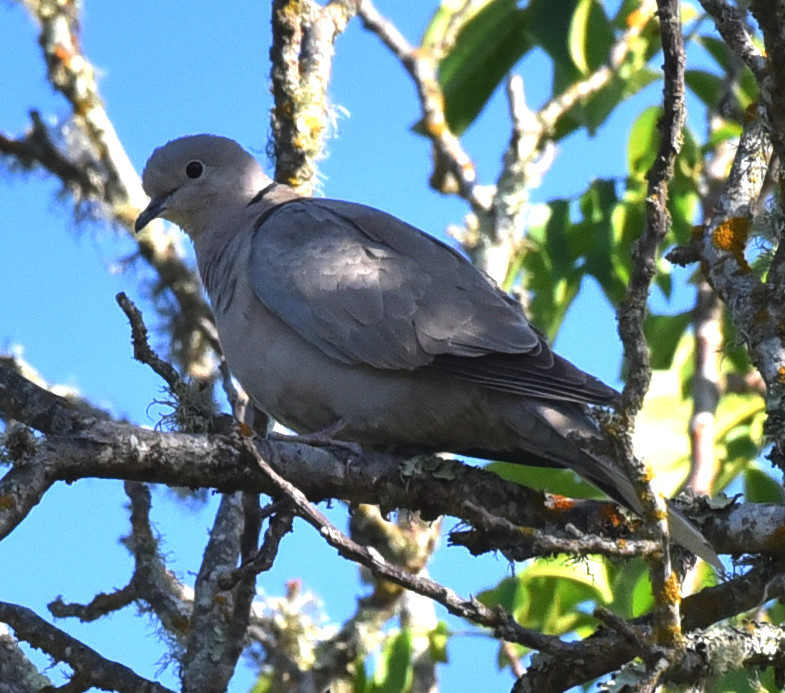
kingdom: Animalia
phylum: Chordata
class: Aves
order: Columbiformes
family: Columbidae
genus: Streptopelia
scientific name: Streptopelia decaocto
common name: Eurasian collared dove
